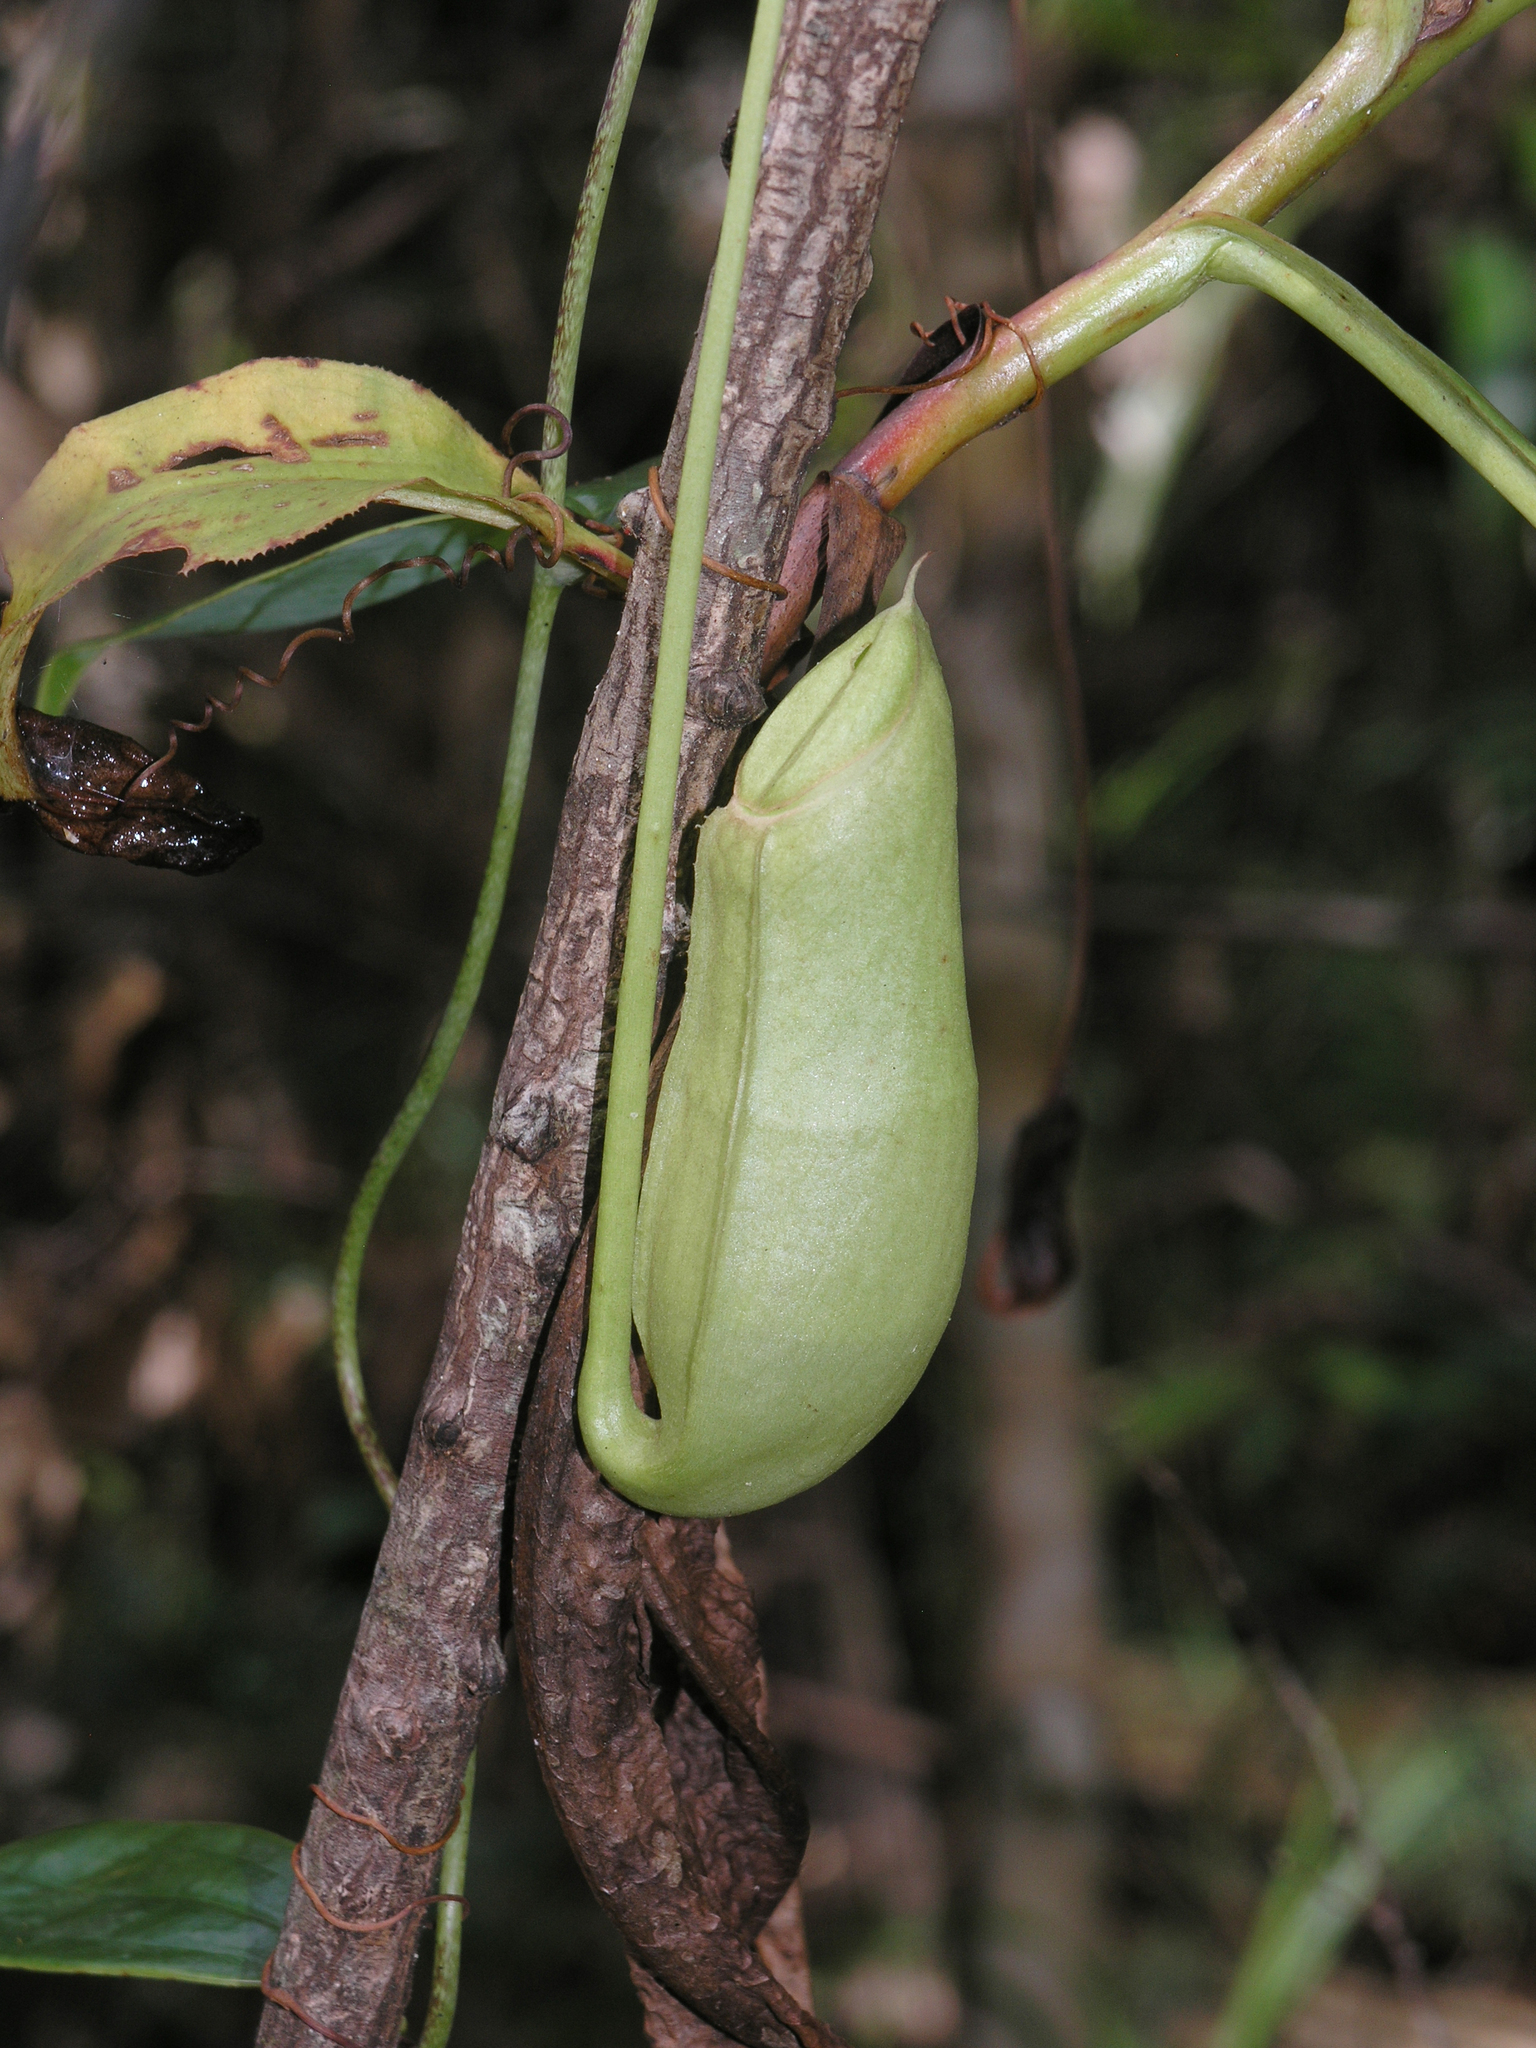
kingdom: Plantae
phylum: Tracheophyta
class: Magnoliopsida
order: Caryophyllales
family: Nepenthaceae
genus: Nepenthes
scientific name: Nepenthes mirabilis
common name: Tropical pitcherplant
